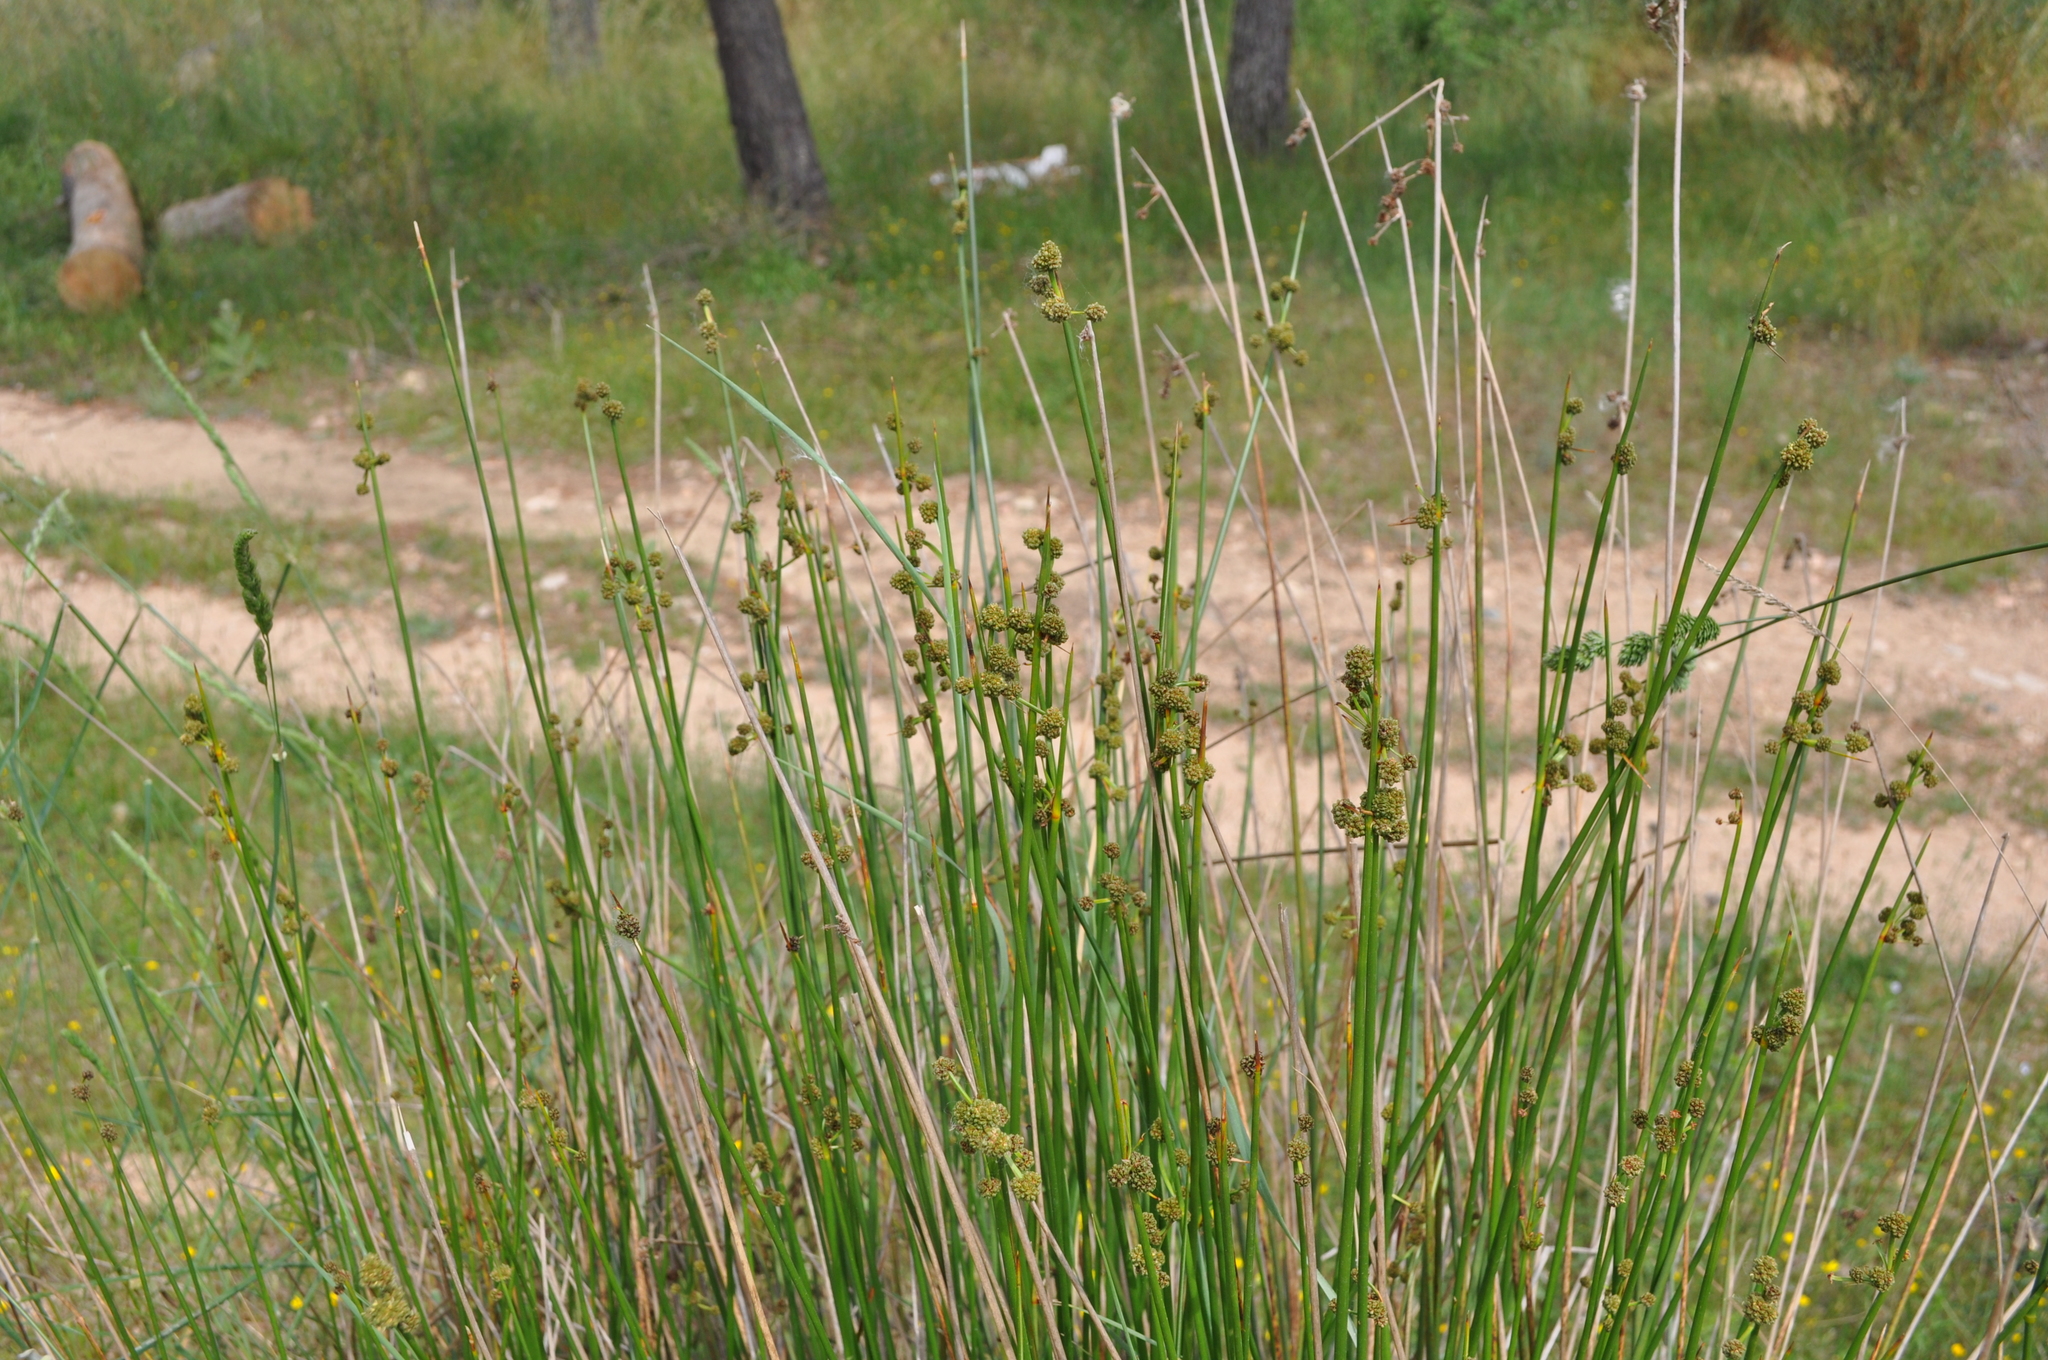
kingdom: Plantae
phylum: Tracheophyta
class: Liliopsida
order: Poales
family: Cyperaceae
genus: Scirpoides
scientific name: Scirpoides holoschoenus
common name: Round-headed club-rush
